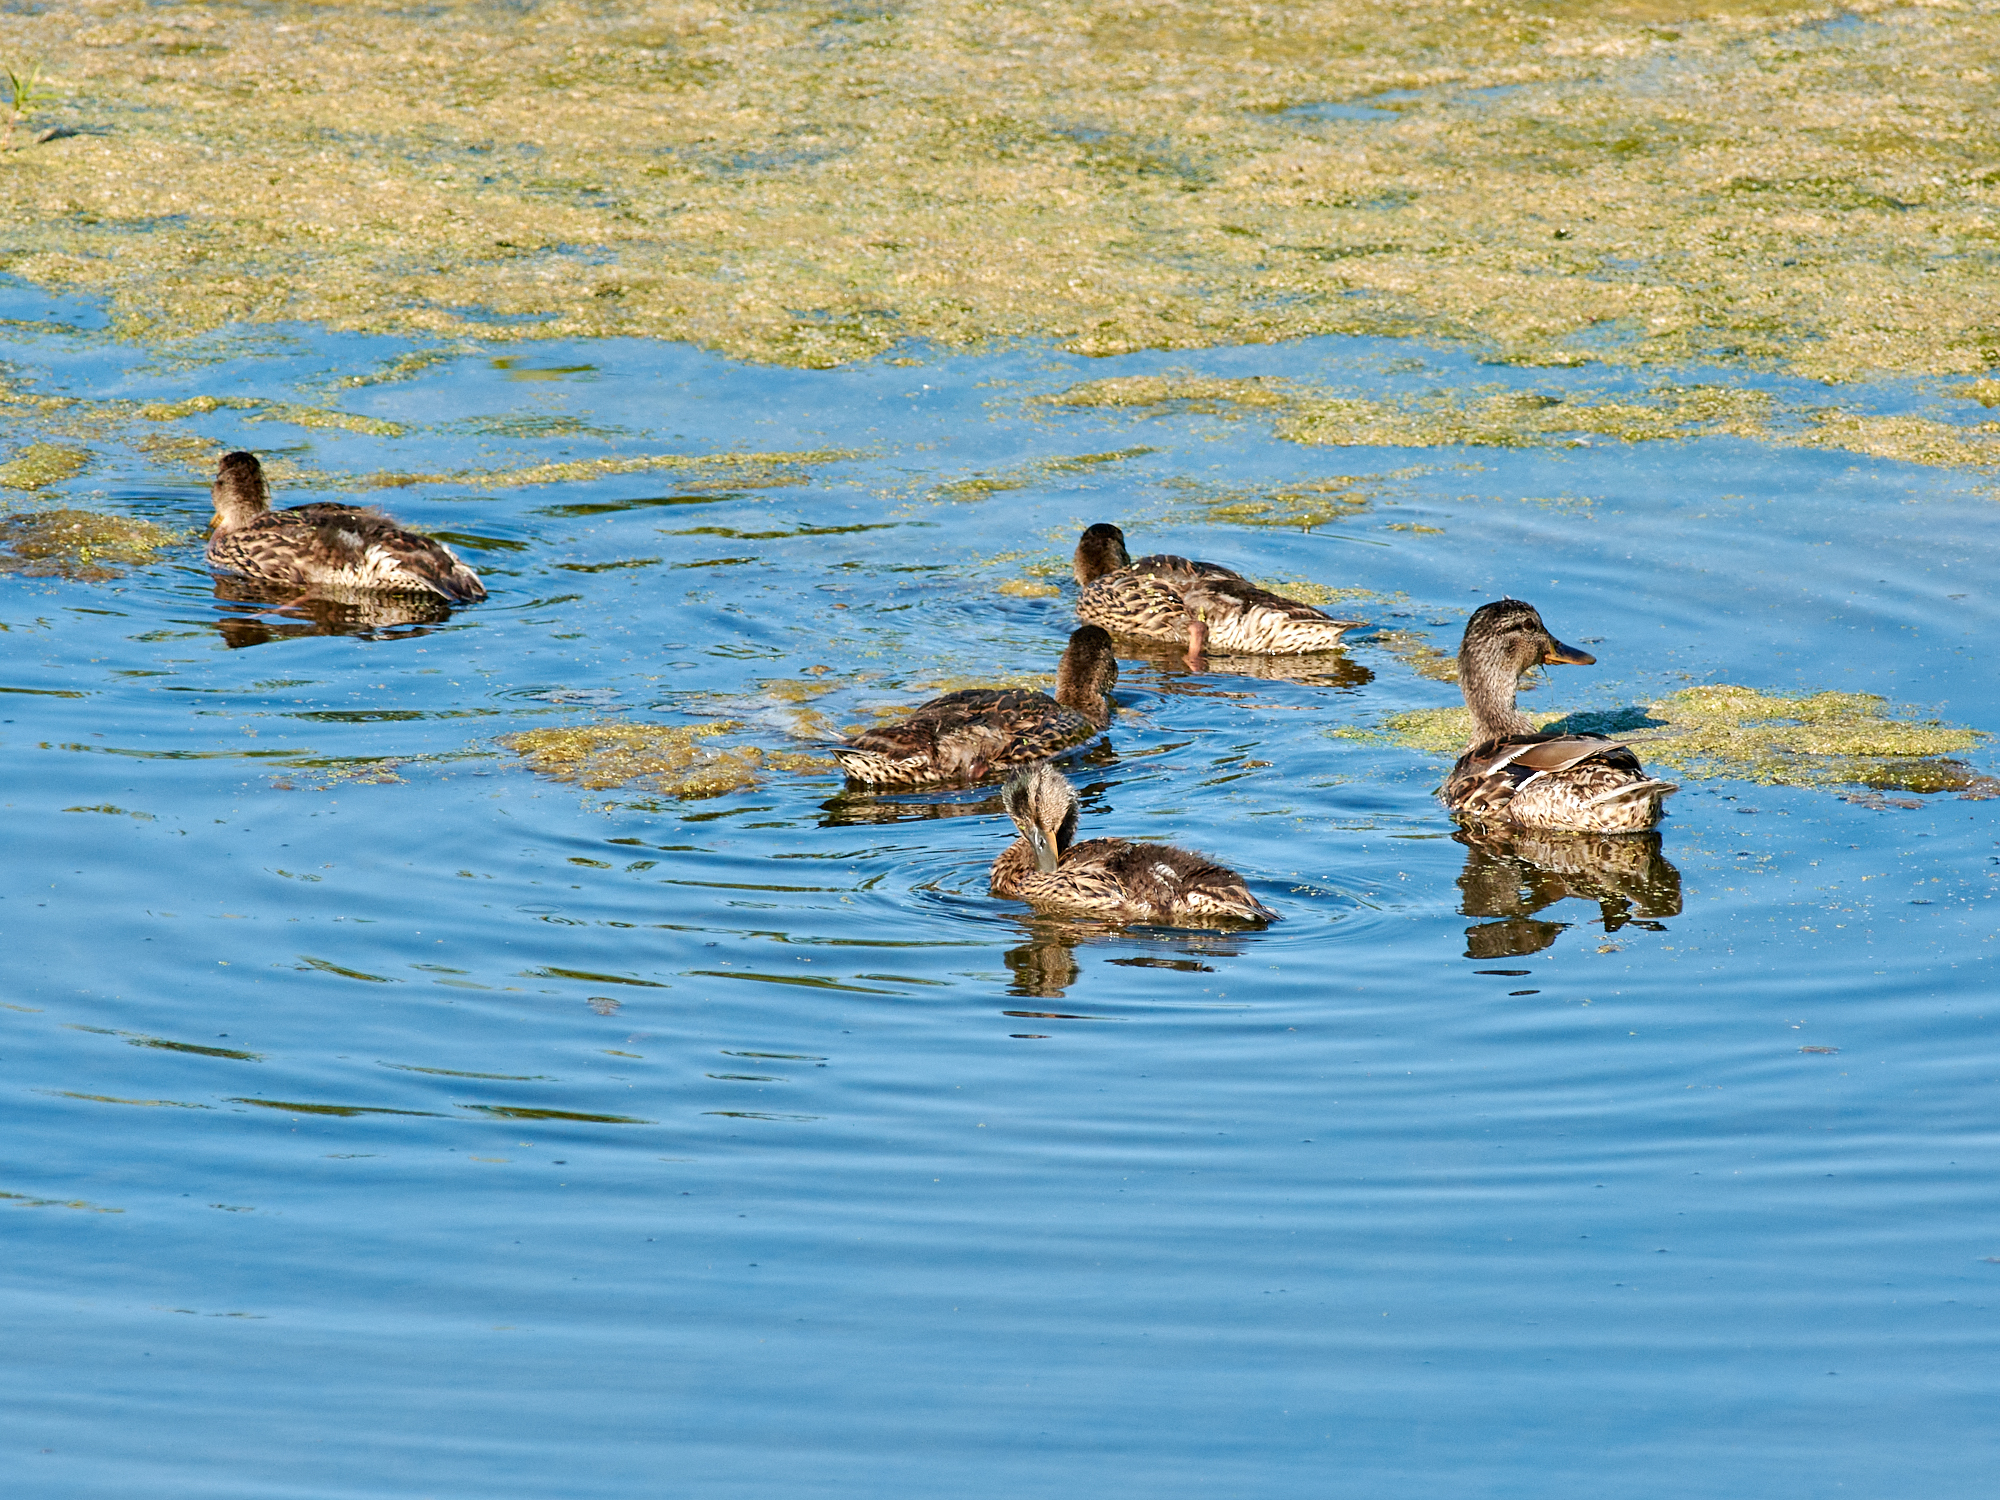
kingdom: Animalia
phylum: Chordata
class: Aves
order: Anseriformes
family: Anatidae
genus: Anas
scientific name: Anas platyrhynchos
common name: Mallard
